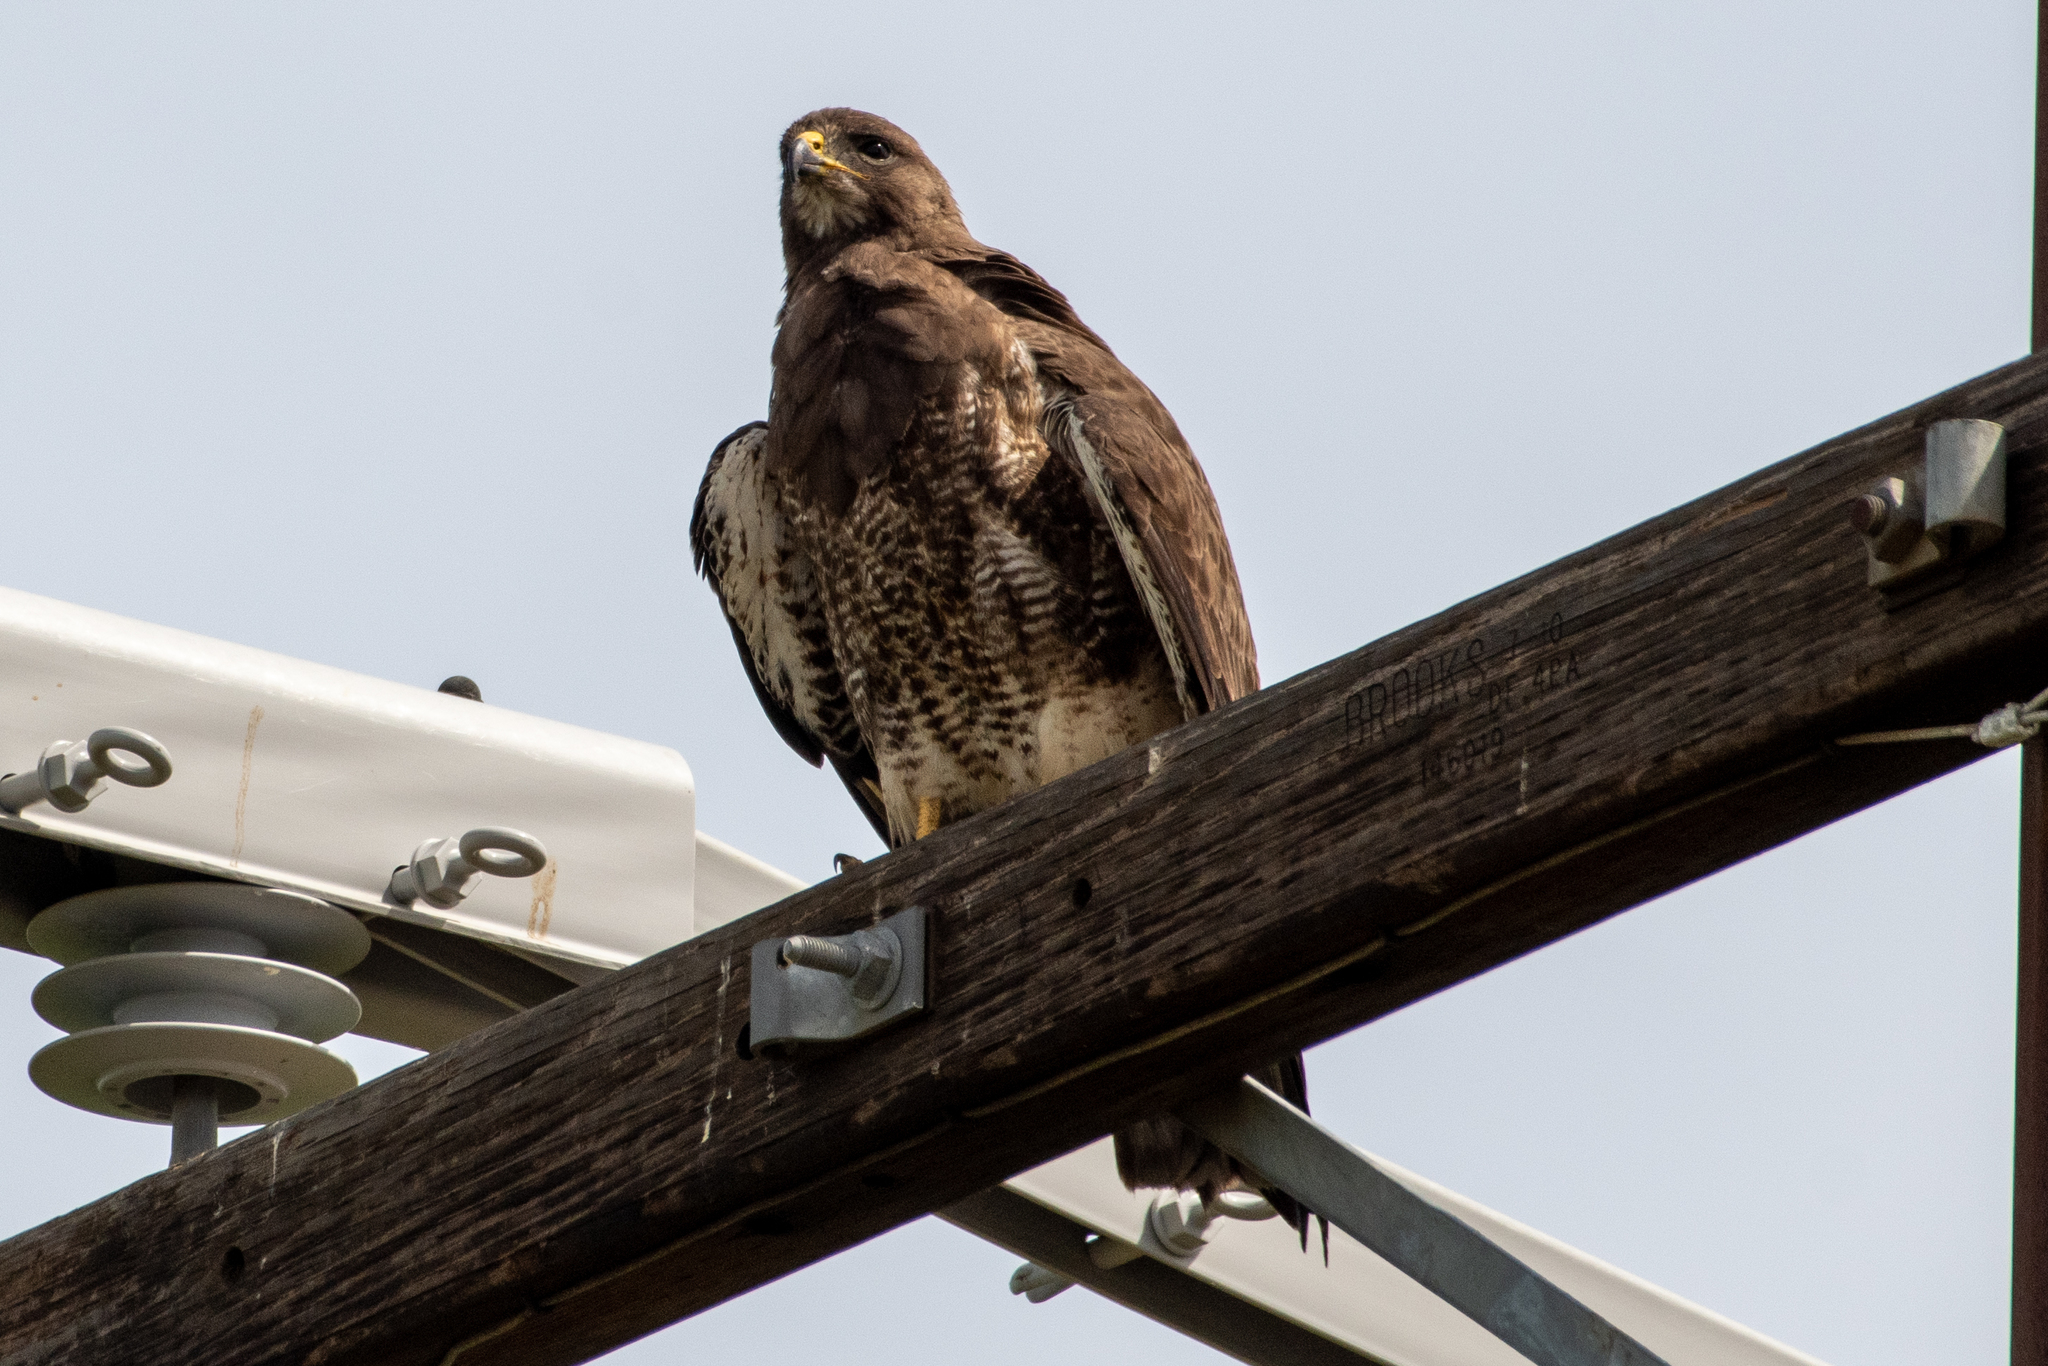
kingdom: Animalia
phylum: Chordata
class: Aves
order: Accipitriformes
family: Accipitridae
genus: Buteo
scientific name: Buteo swainsoni
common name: Swainson's hawk
